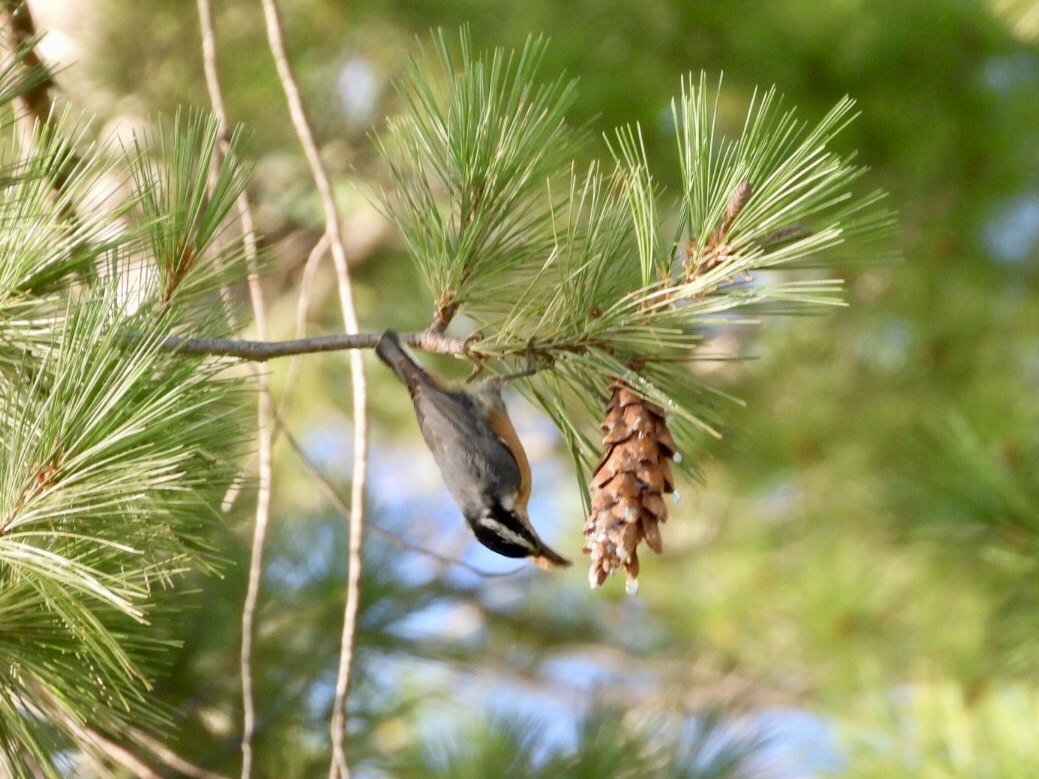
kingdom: Animalia
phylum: Chordata
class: Aves
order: Passeriformes
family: Sittidae
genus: Sitta
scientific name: Sitta canadensis
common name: Red-breasted nuthatch
